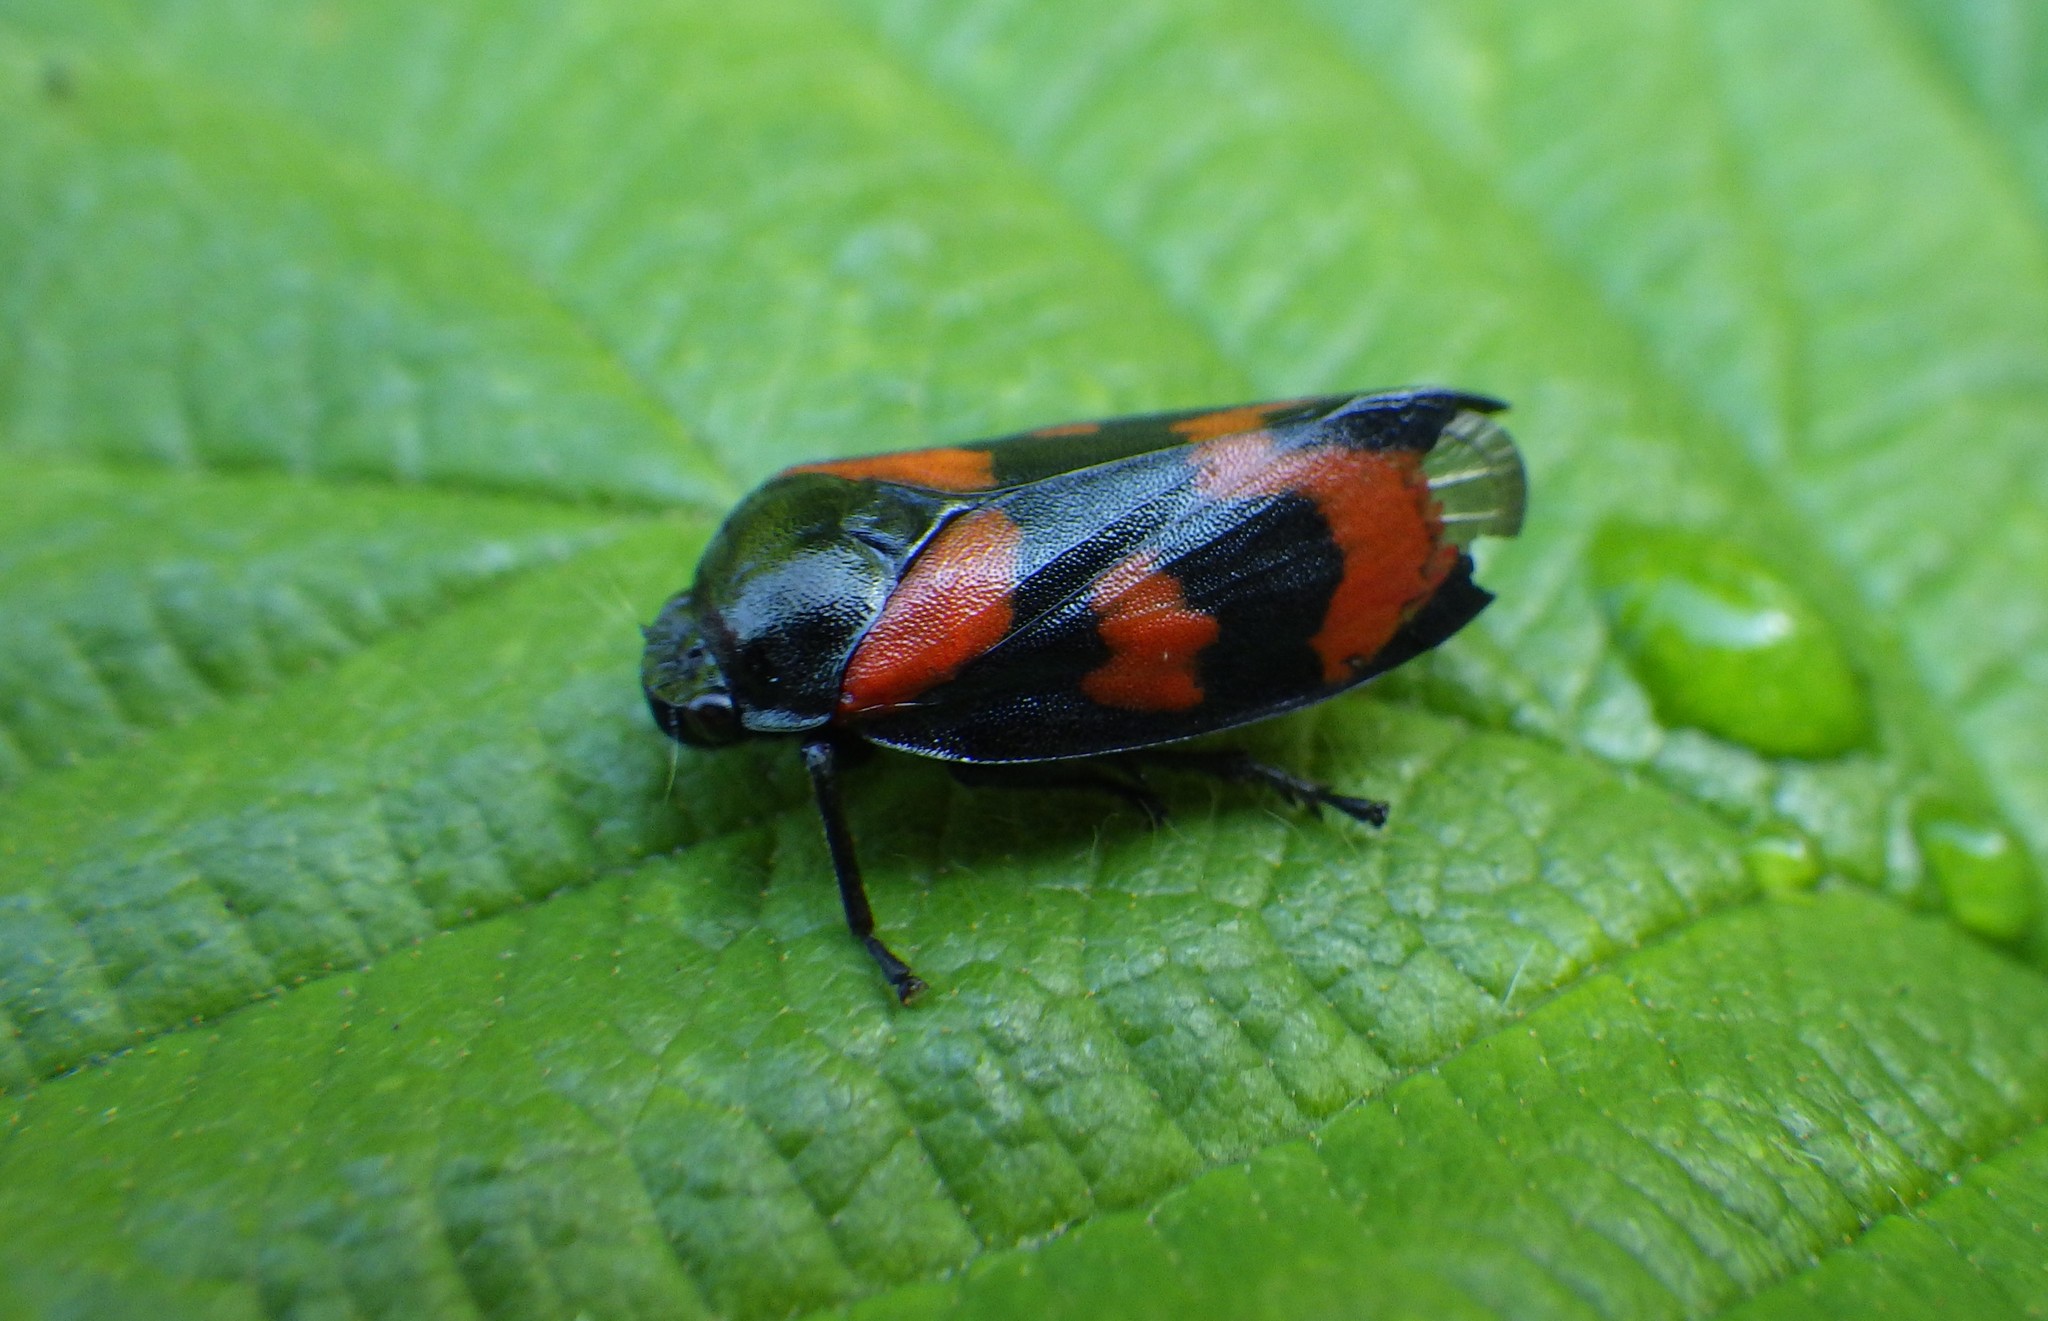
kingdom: Animalia
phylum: Arthropoda
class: Insecta
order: Hemiptera
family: Cercopidae
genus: Cercopis
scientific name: Cercopis vulnerata
